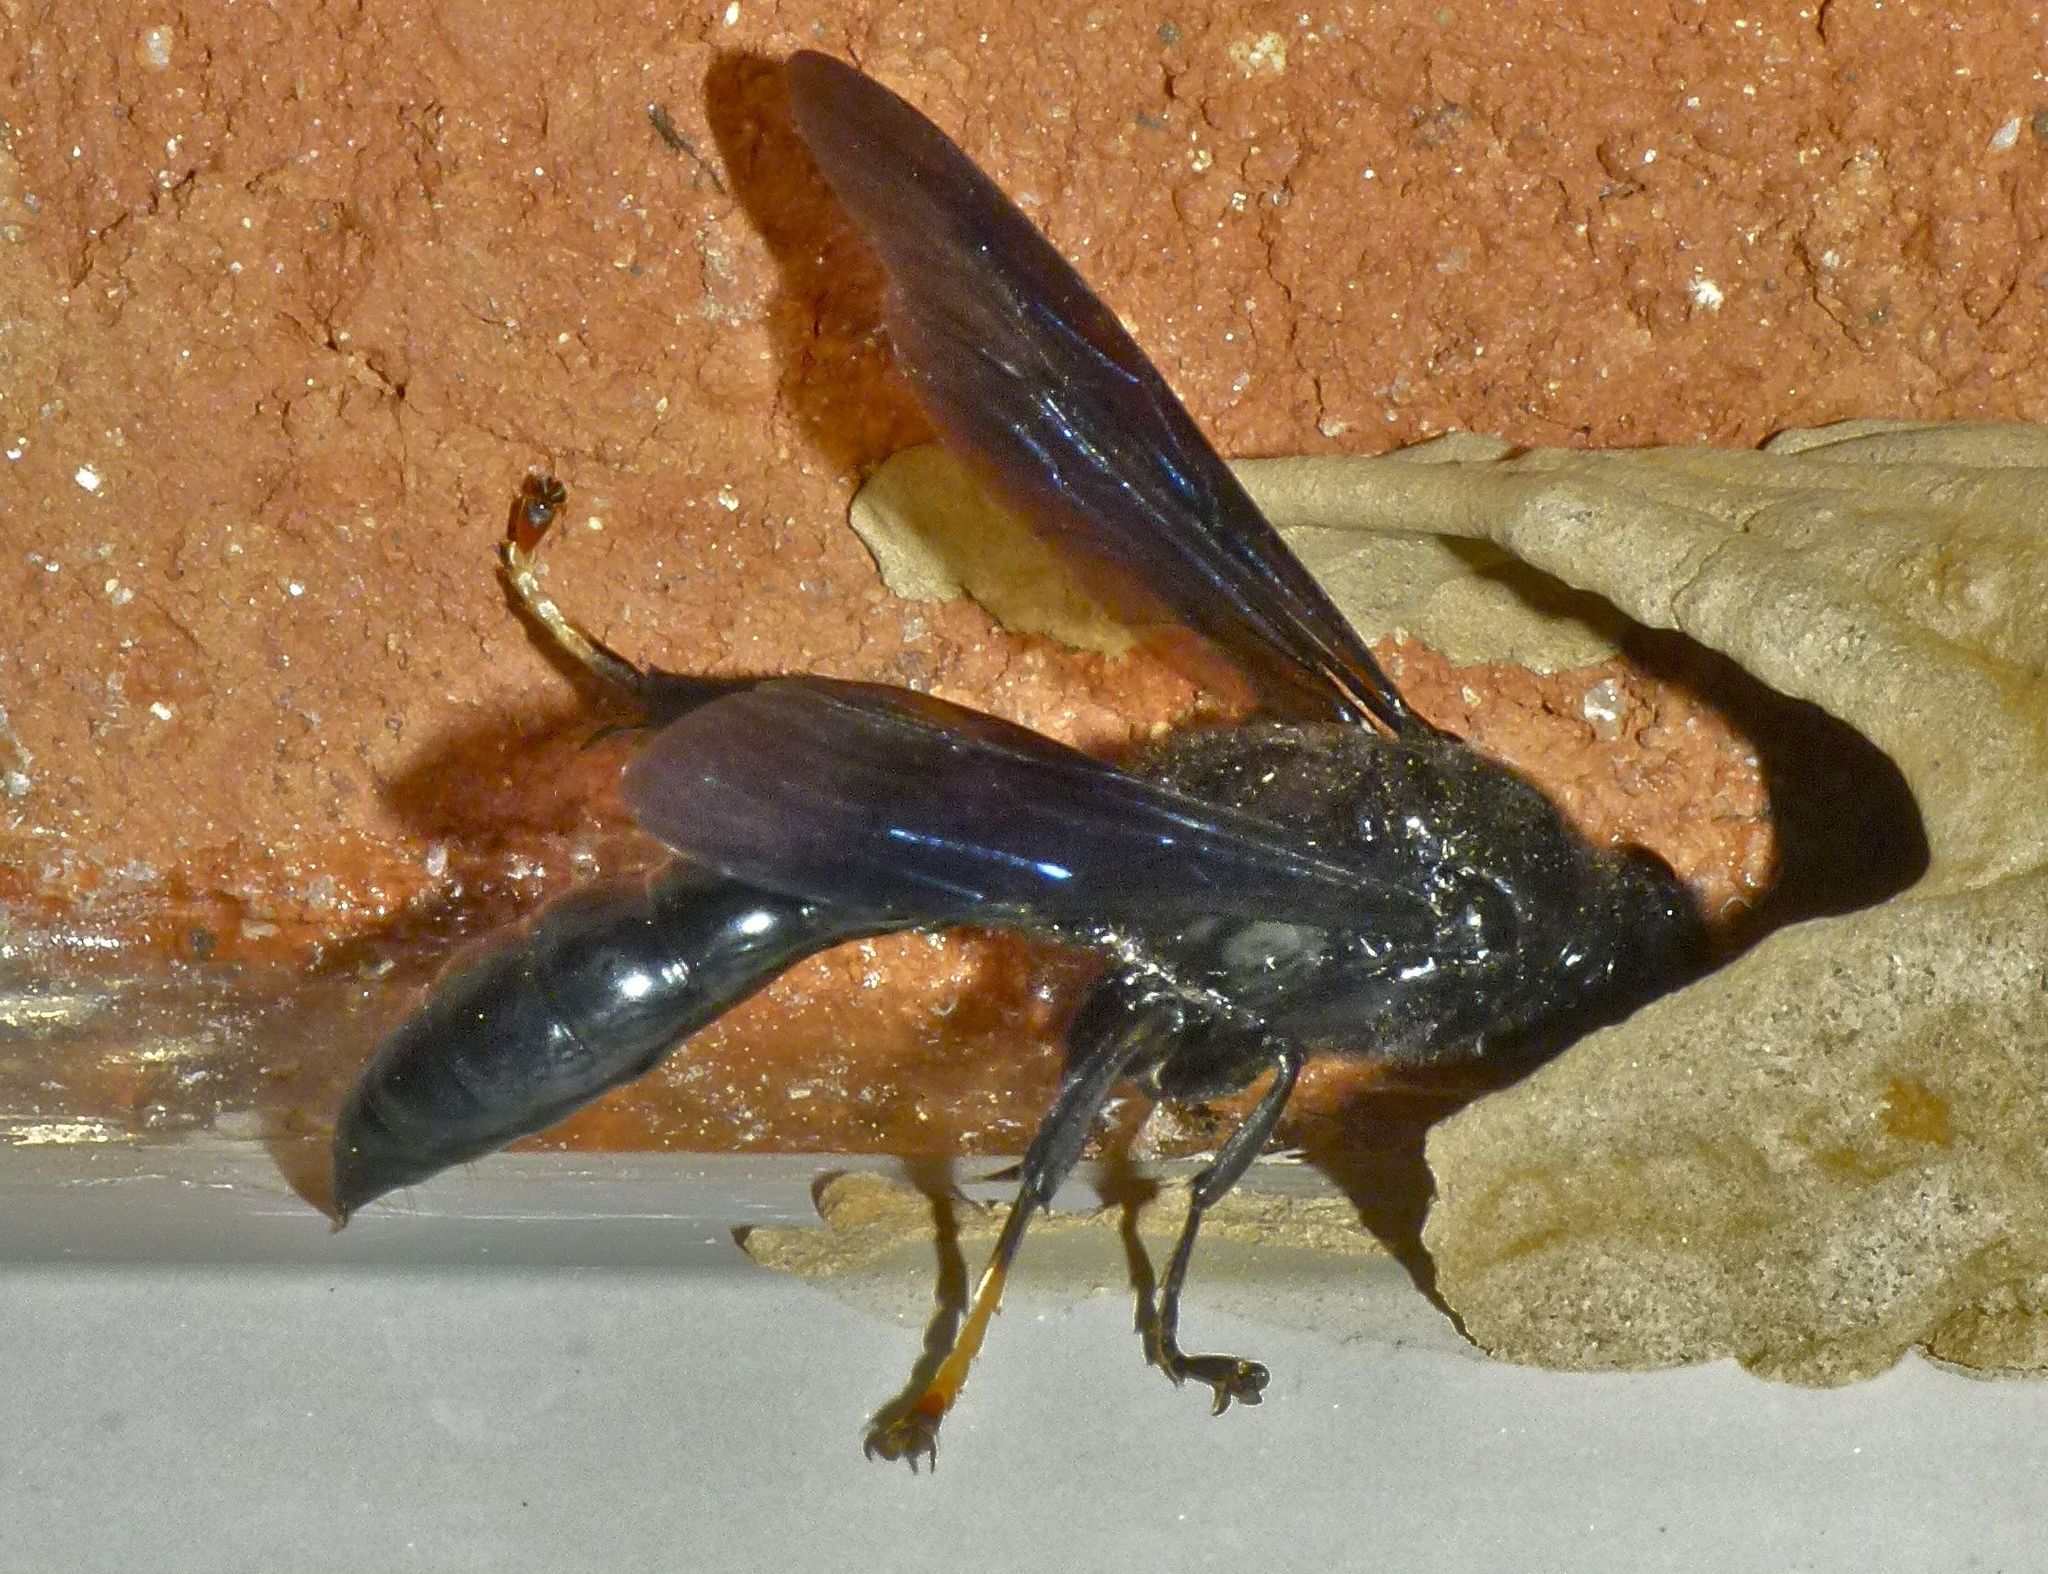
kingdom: Animalia
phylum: Arthropoda
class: Insecta
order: Hymenoptera
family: Crabronidae
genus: Trypoxylon
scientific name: Trypoxylon politum
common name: Organ-pipe mud-dauber wasp
